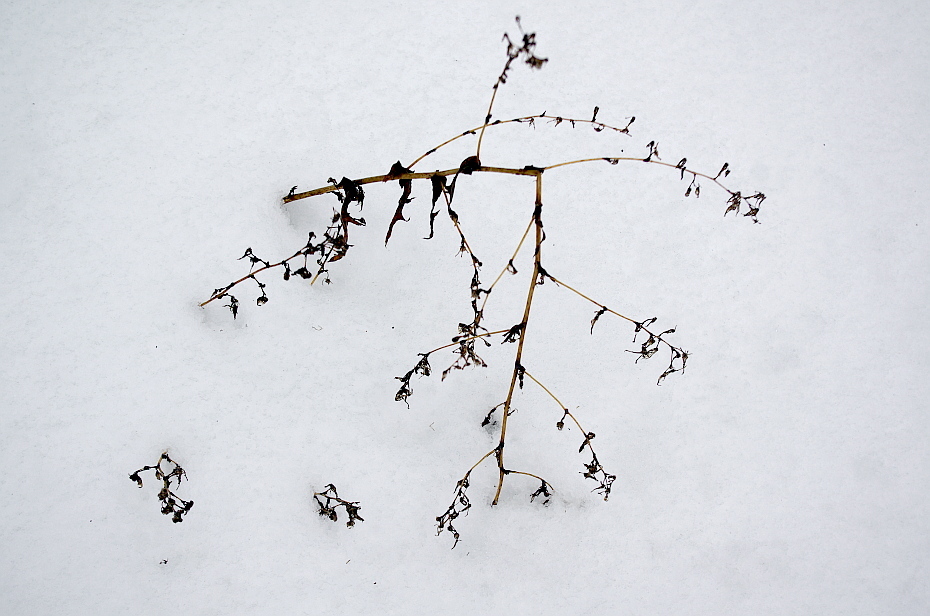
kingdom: Plantae
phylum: Tracheophyta
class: Magnoliopsida
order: Asterales
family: Asteraceae
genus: Lactuca
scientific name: Lactuca serriola
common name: Prickly lettuce
